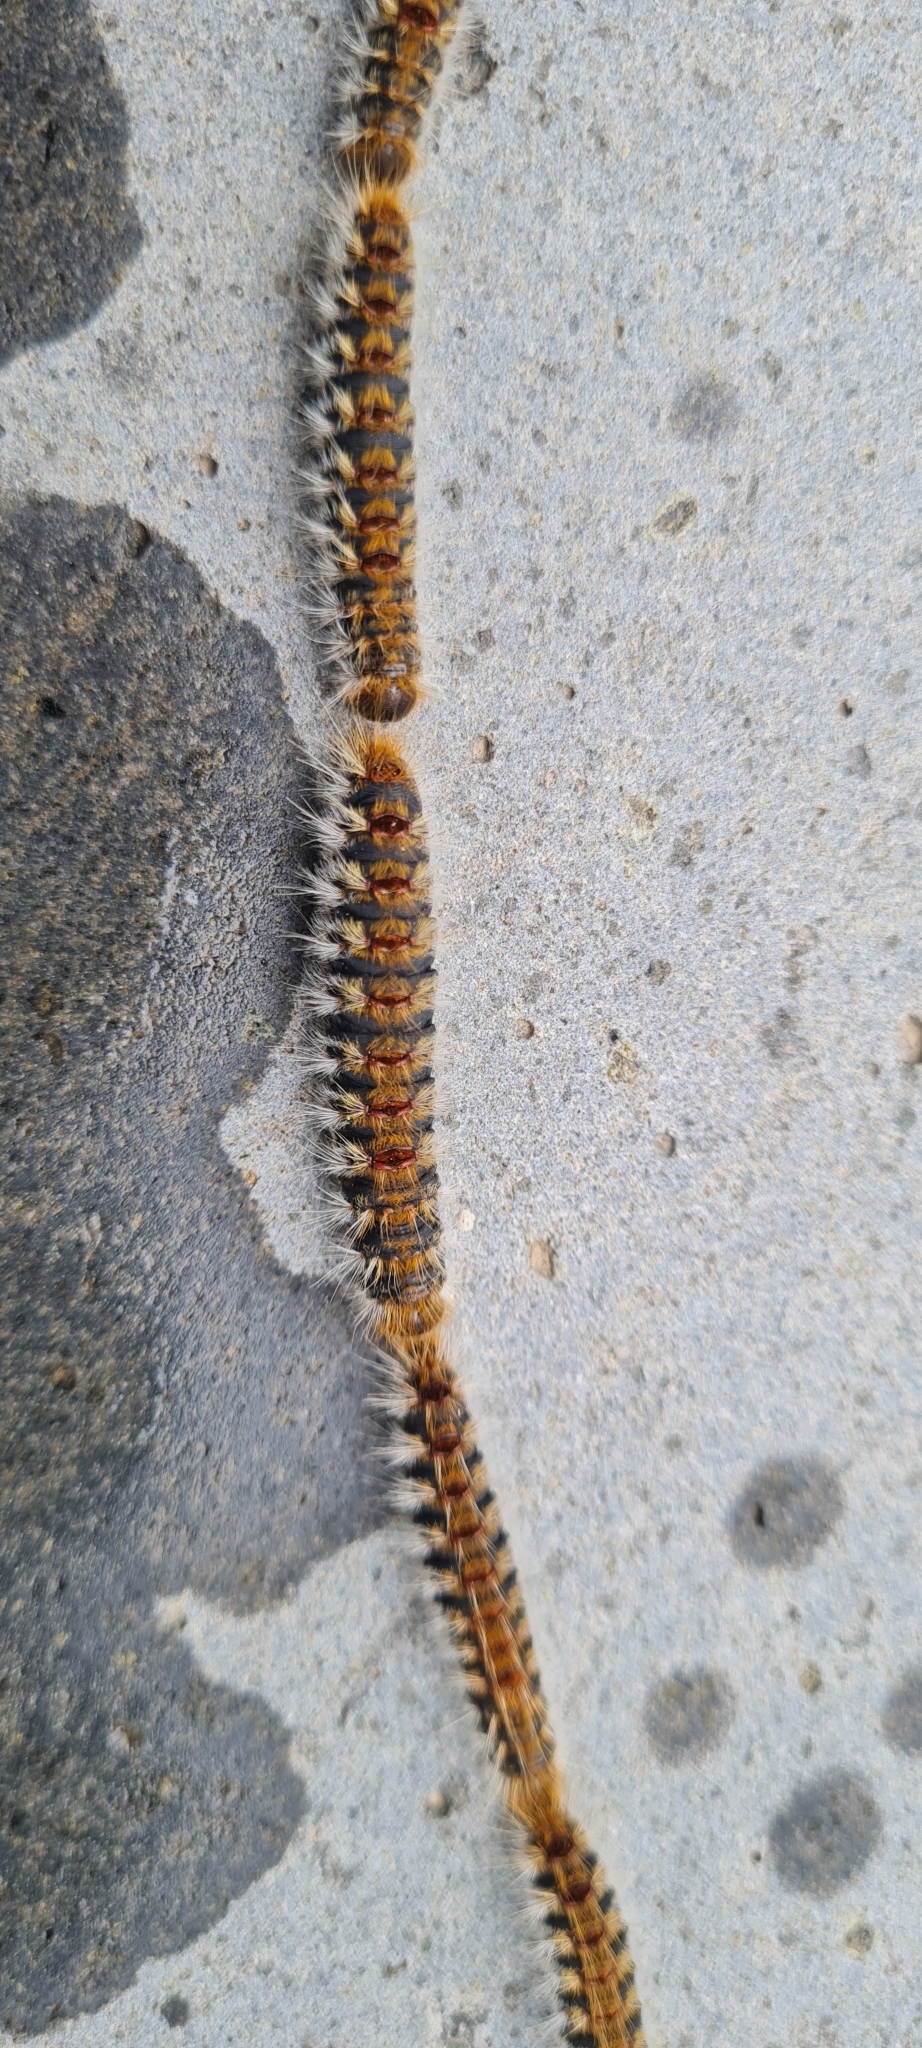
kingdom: Animalia
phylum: Arthropoda
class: Insecta
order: Lepidoptera
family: Notodontidae
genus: Thaumetopoea
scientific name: Thaumetopoea pityocampa
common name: Pine processionary
